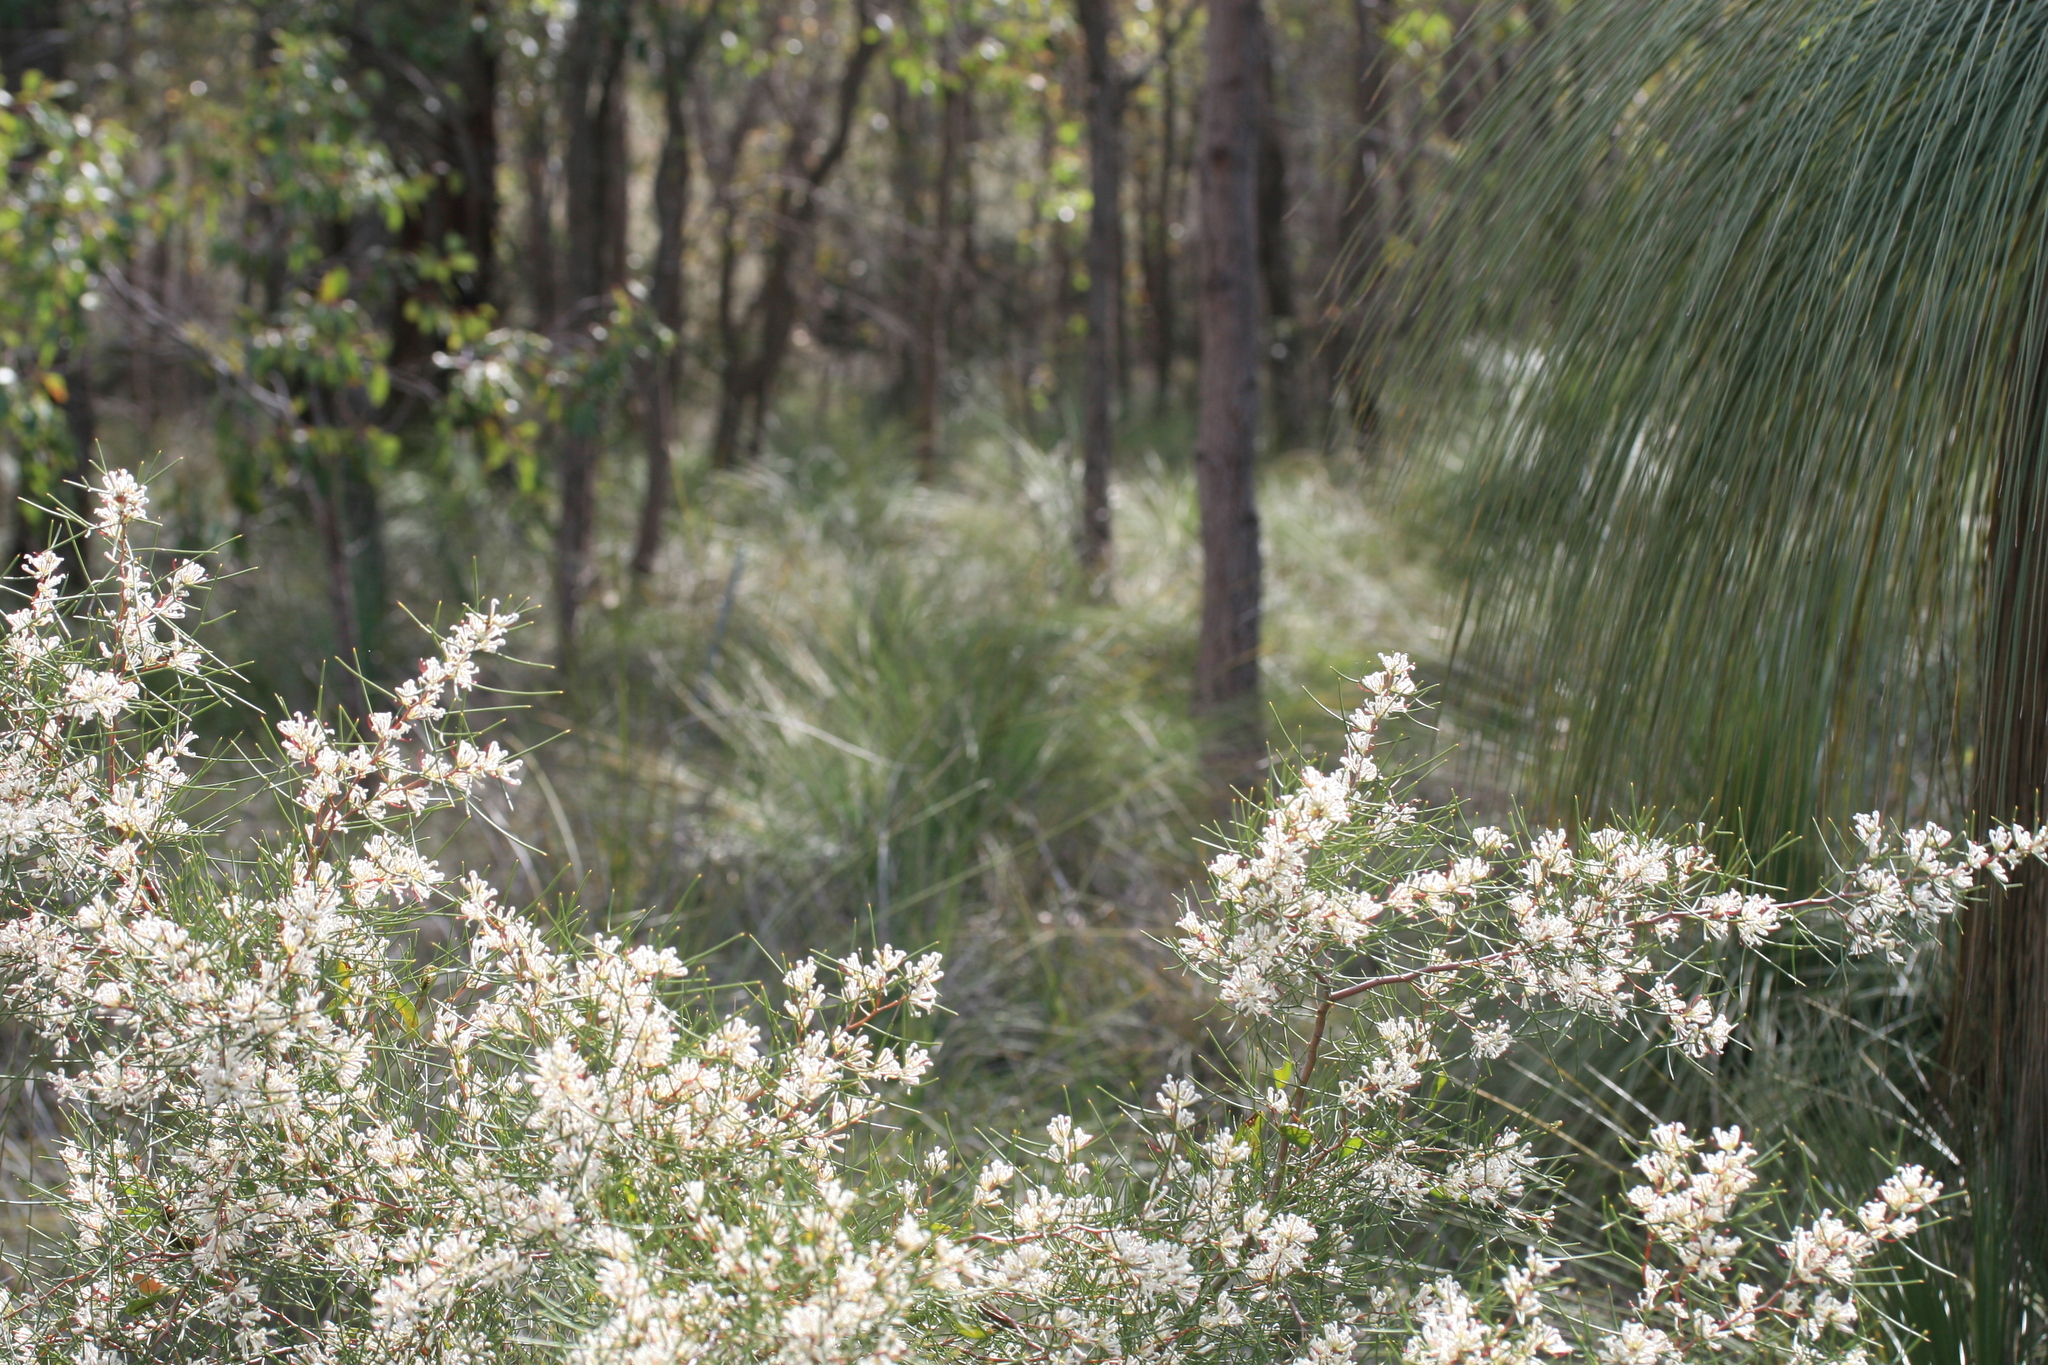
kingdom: Plantae
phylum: Tracheophyta
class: Magnoliopsida
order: Proteales
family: Proteaceae
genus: Hakea
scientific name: Hakea trifurcata
